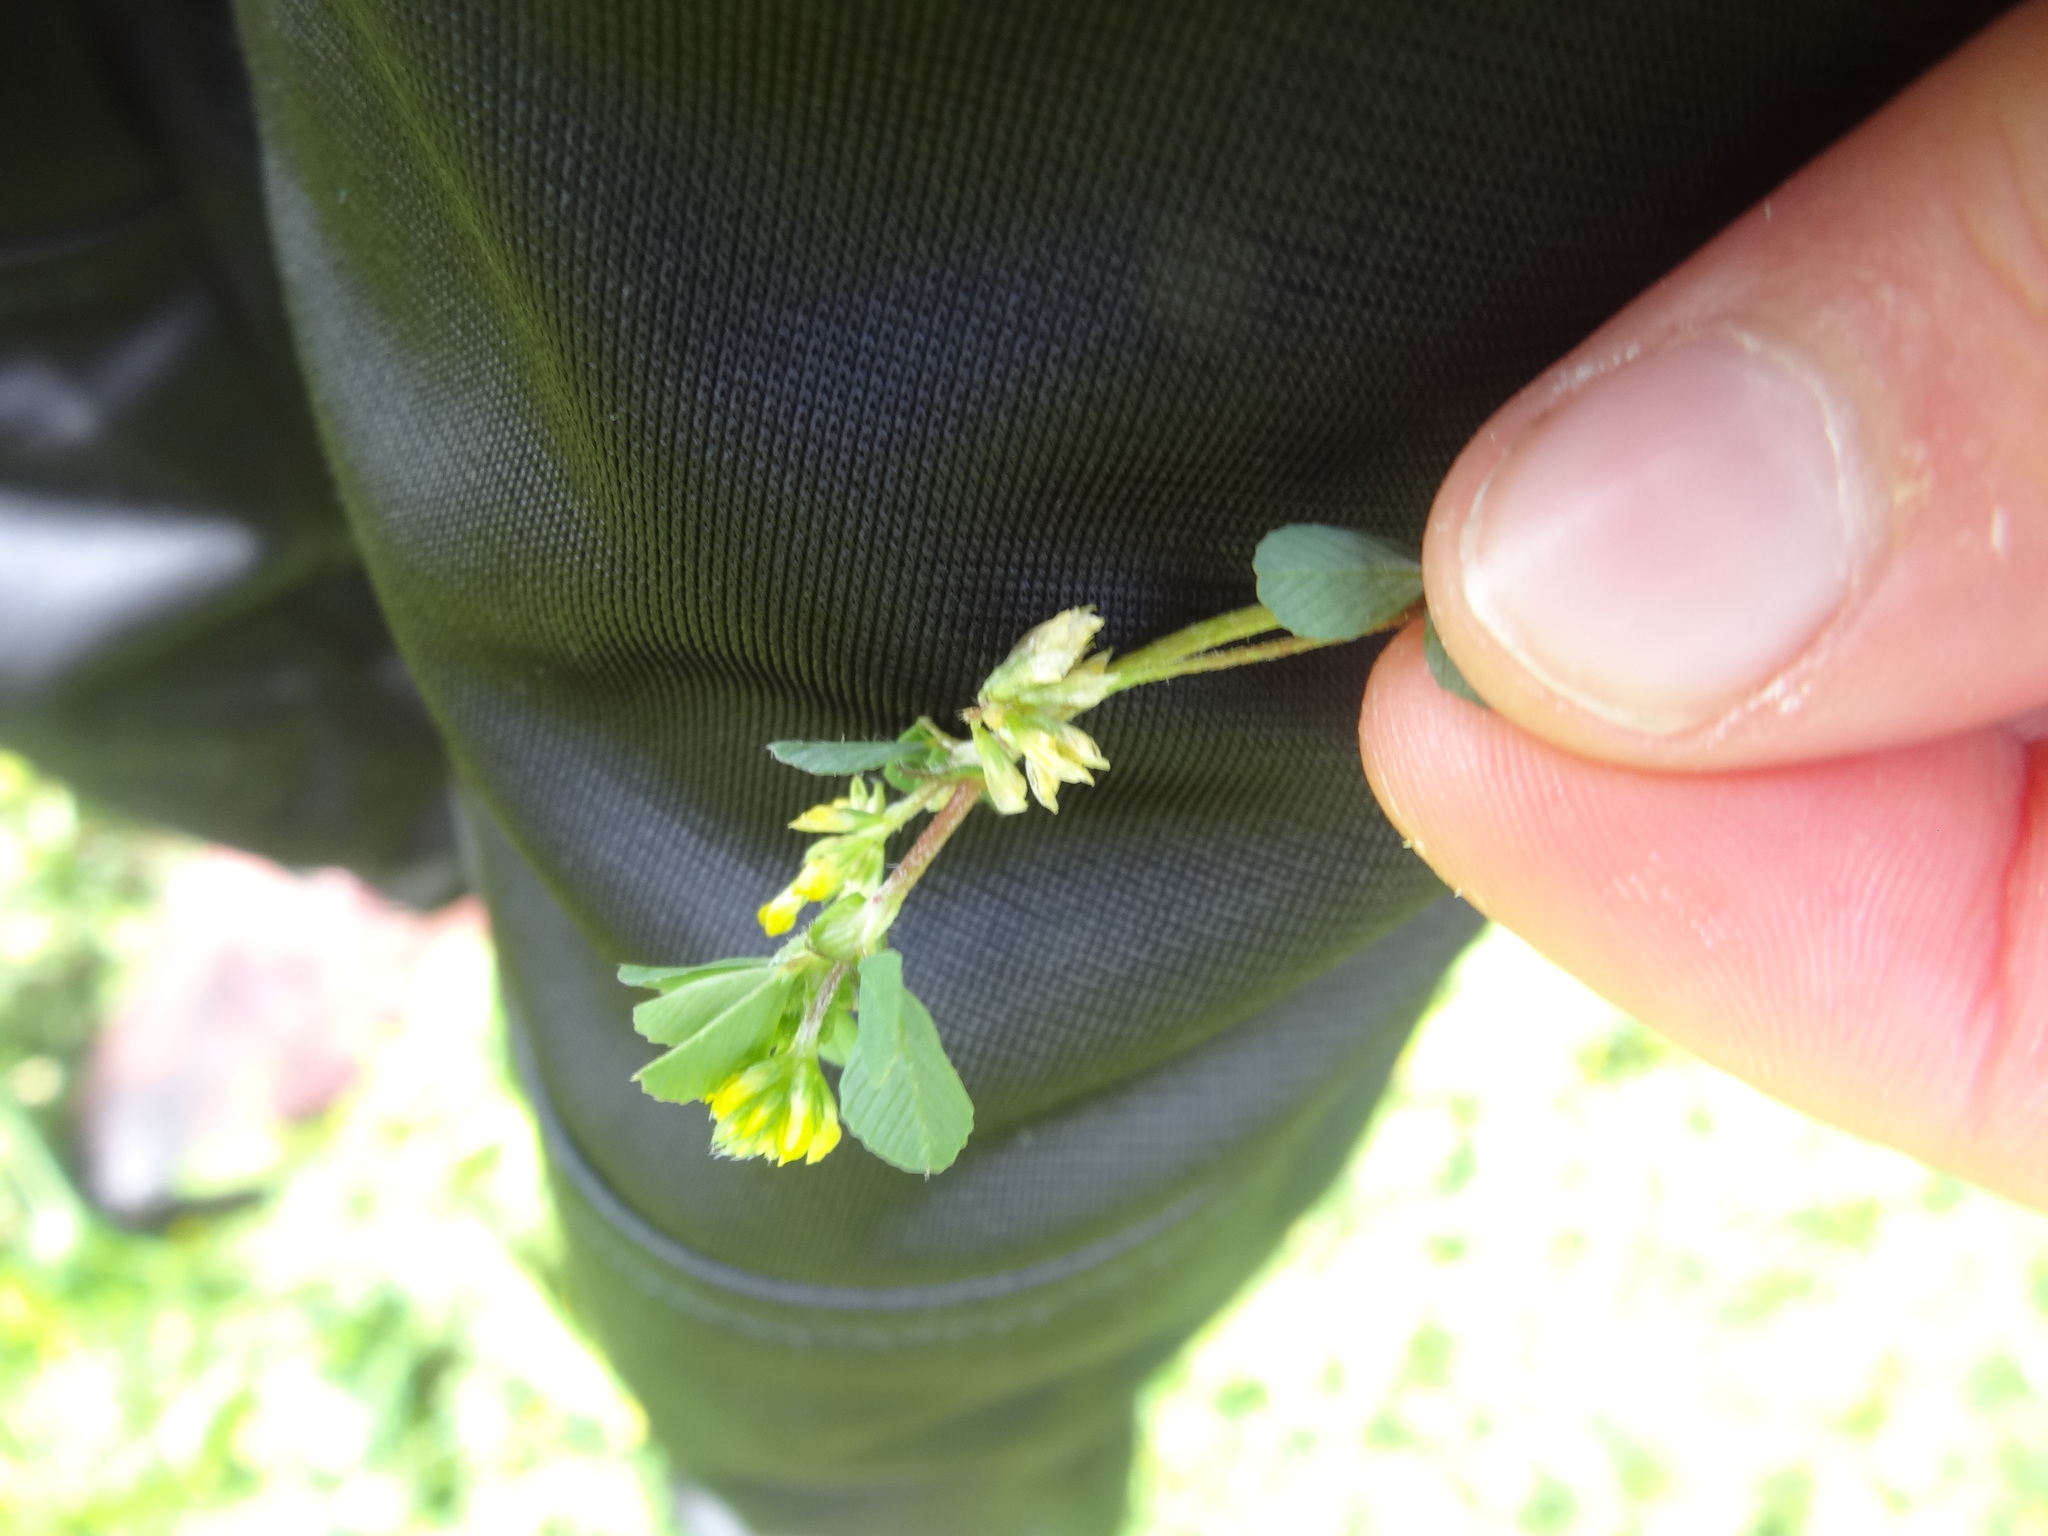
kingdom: Plantae
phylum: Tracheophyta
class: Magnoliopsida
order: Fabales
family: Fabaceae
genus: Trifolium
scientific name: Trifolium dubium
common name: Suckling clover
